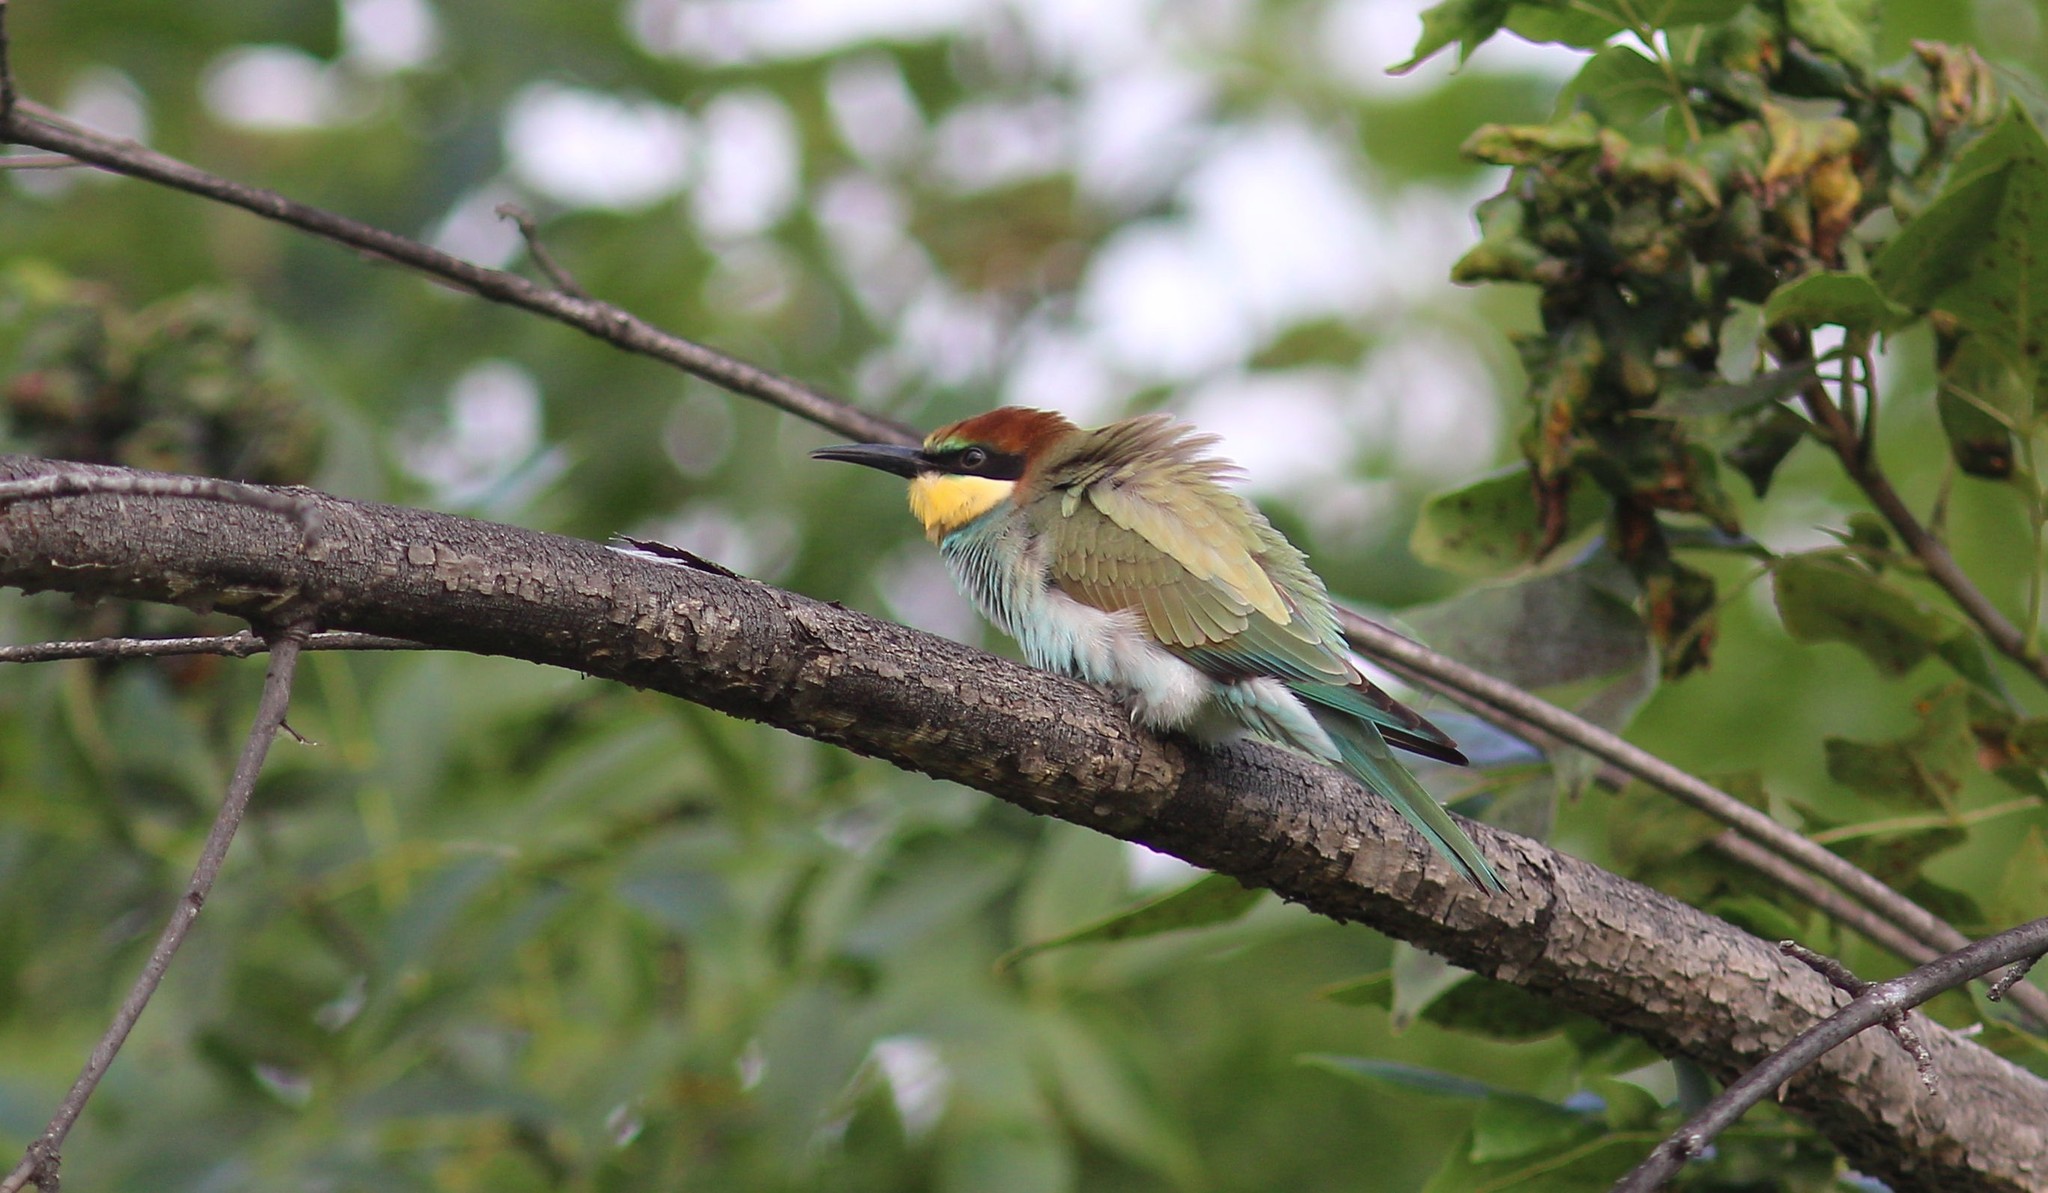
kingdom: Animalia
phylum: Chordata
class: Aves
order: Coraciiformes
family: Meropidae
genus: Merops
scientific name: Merops apiaster
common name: European bee-eater
